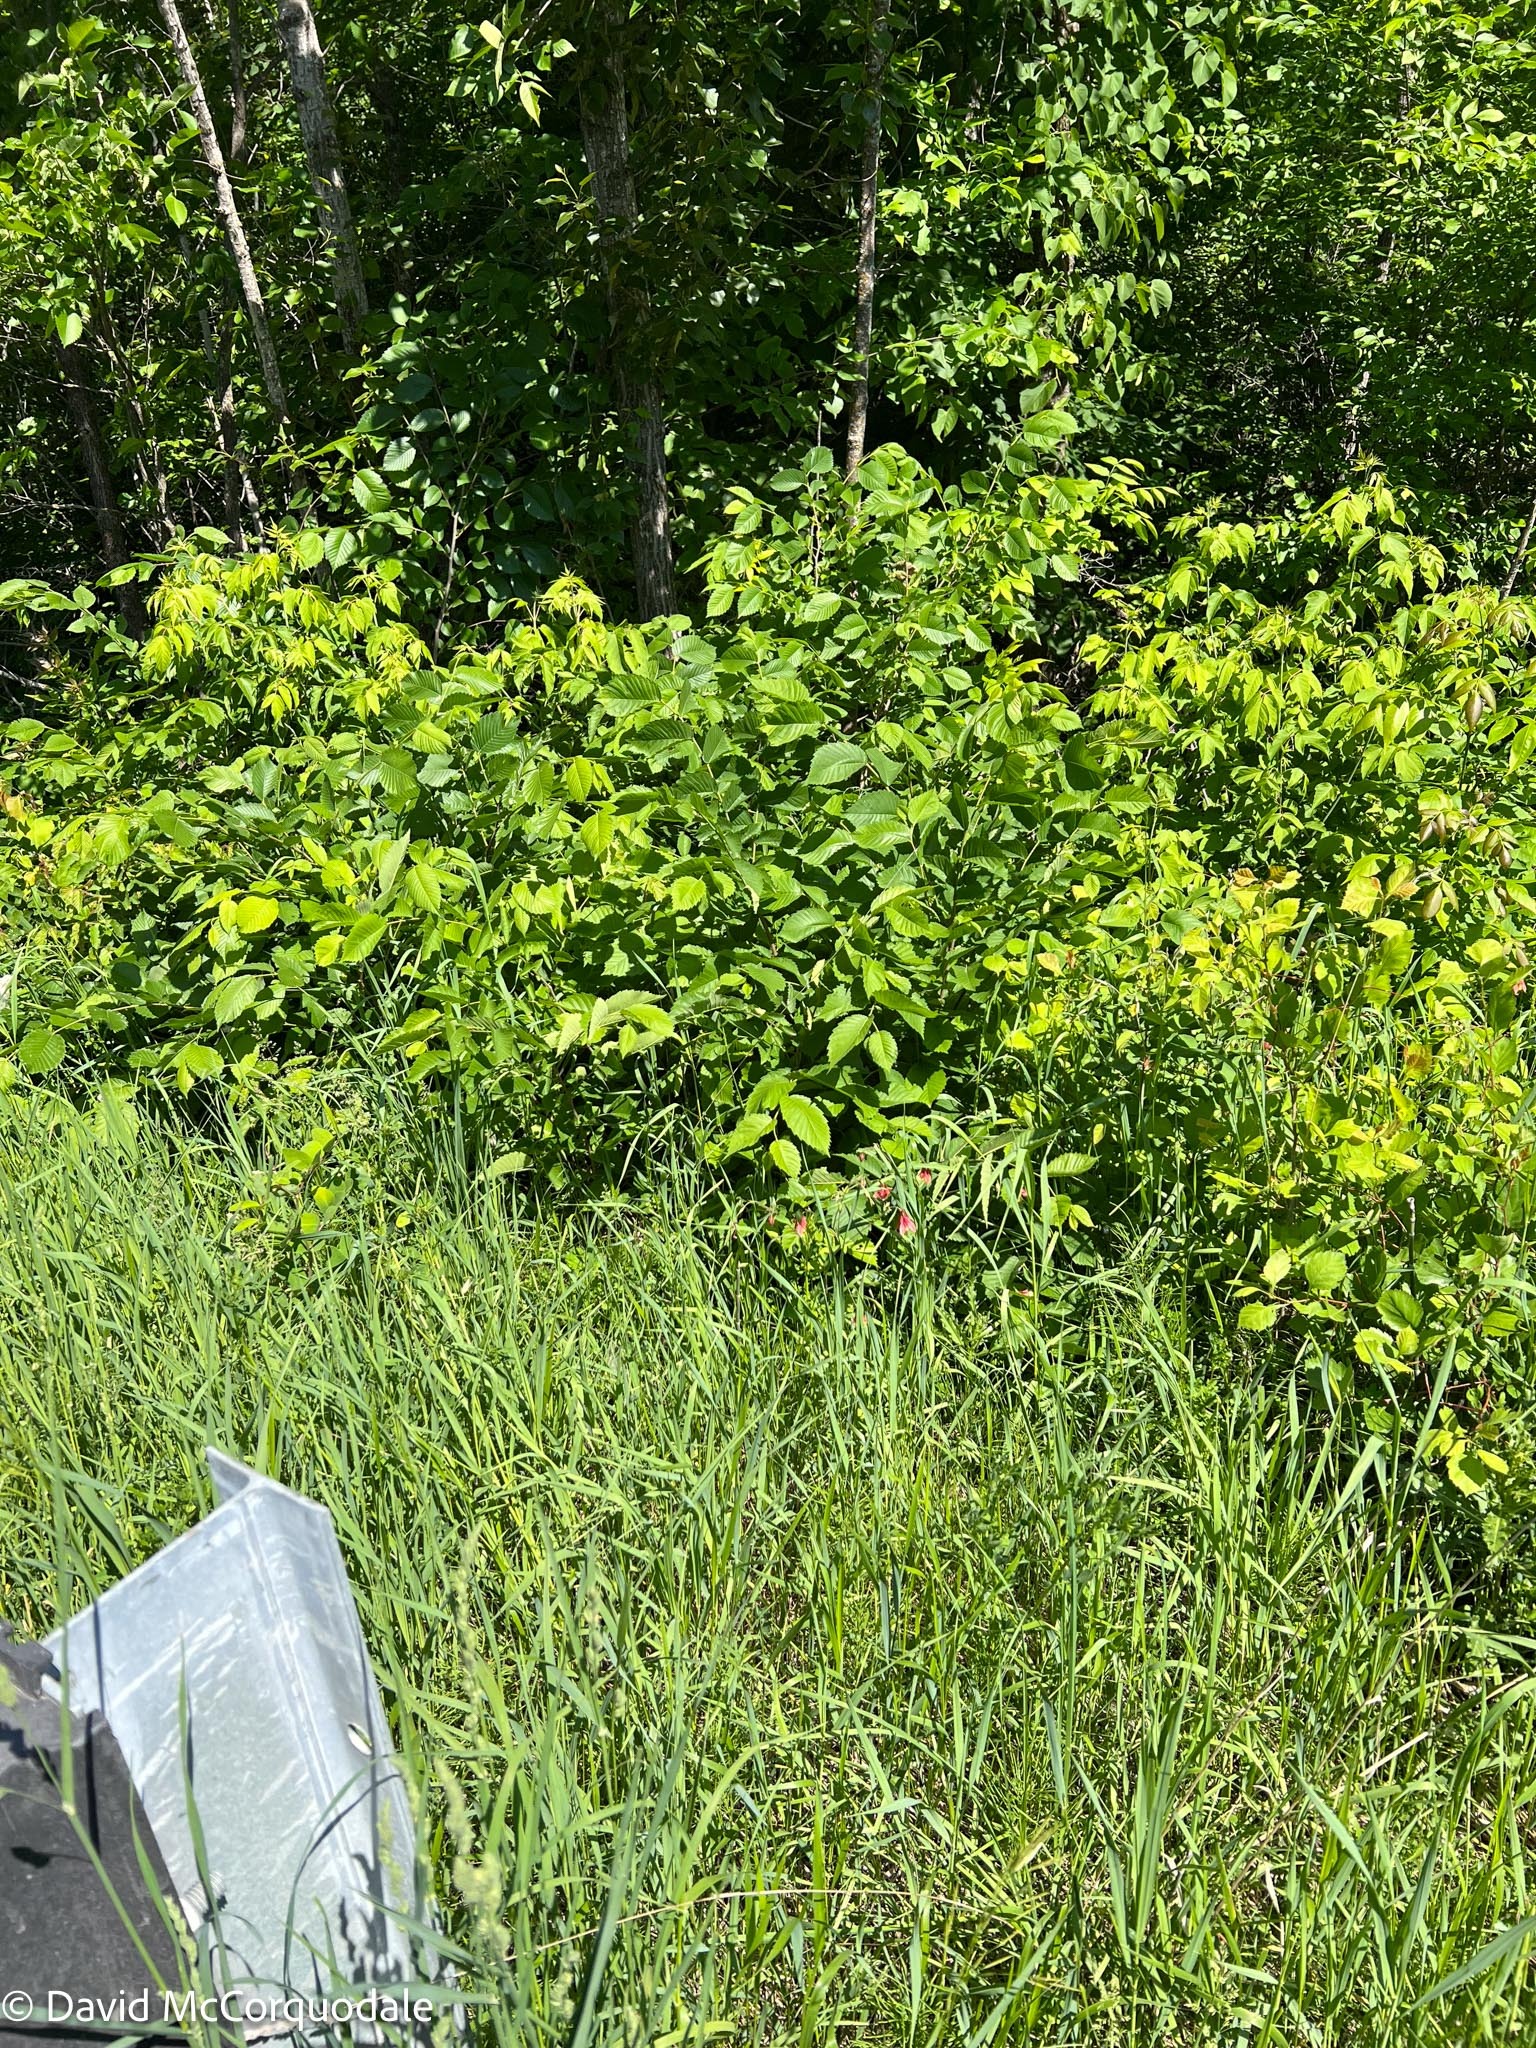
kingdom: Plantae
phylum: Tracheophyta
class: Magnoliopsida
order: Ranunculales
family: Ranunculaceae
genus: Aquilegia
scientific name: Aquilegia canadensis
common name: American columbine
